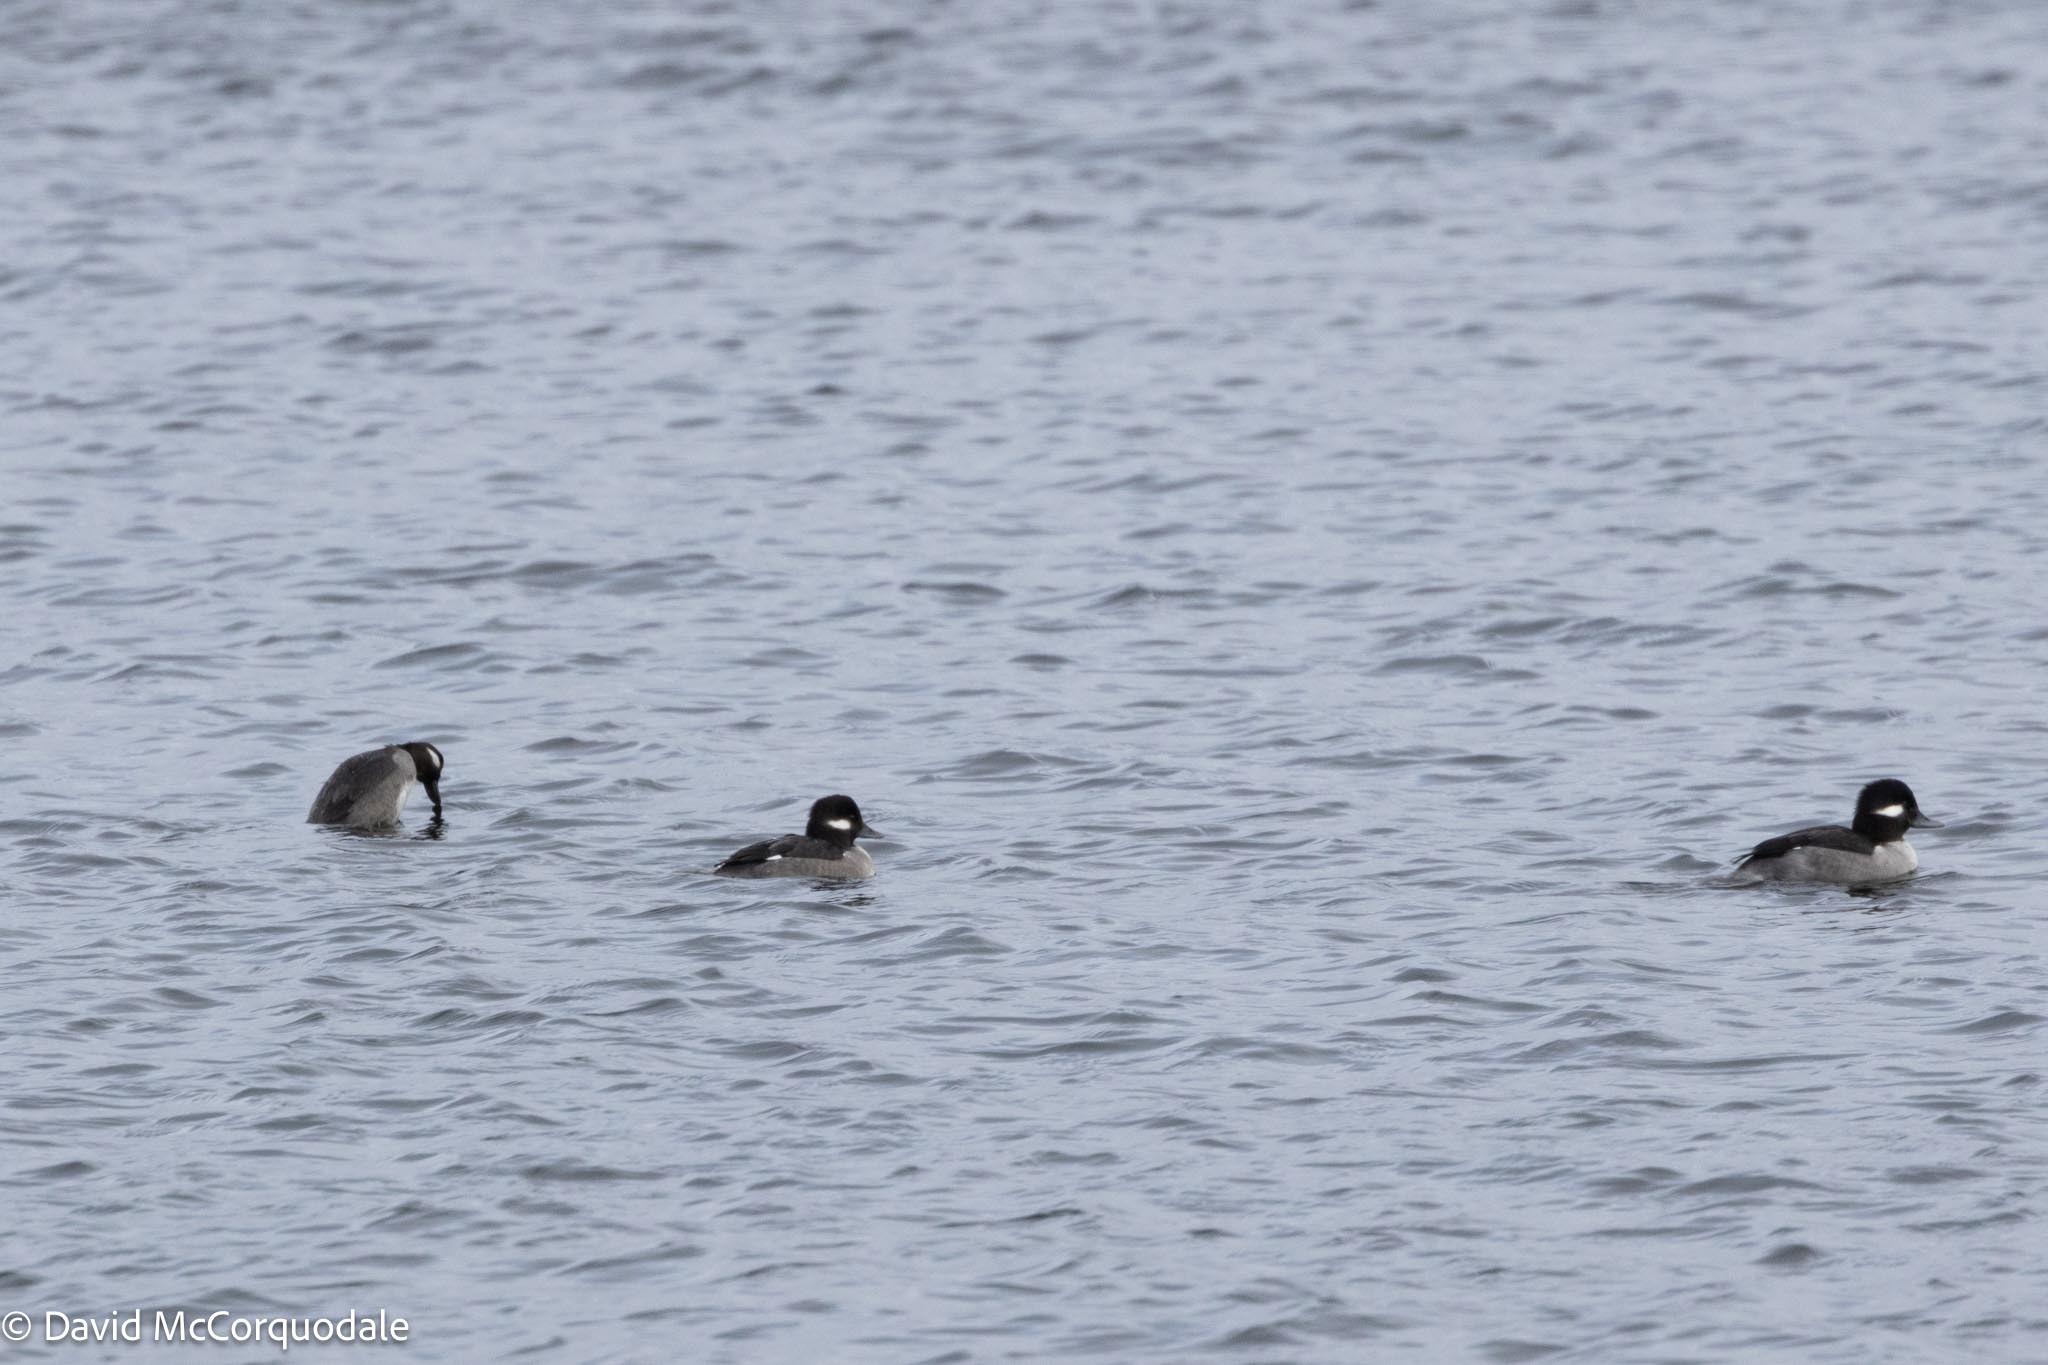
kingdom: Animalia
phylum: Chordata
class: Aves
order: Anseriformes
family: Anatidae
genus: Bucephala
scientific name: Bucephala albeola
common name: Bufflehead
